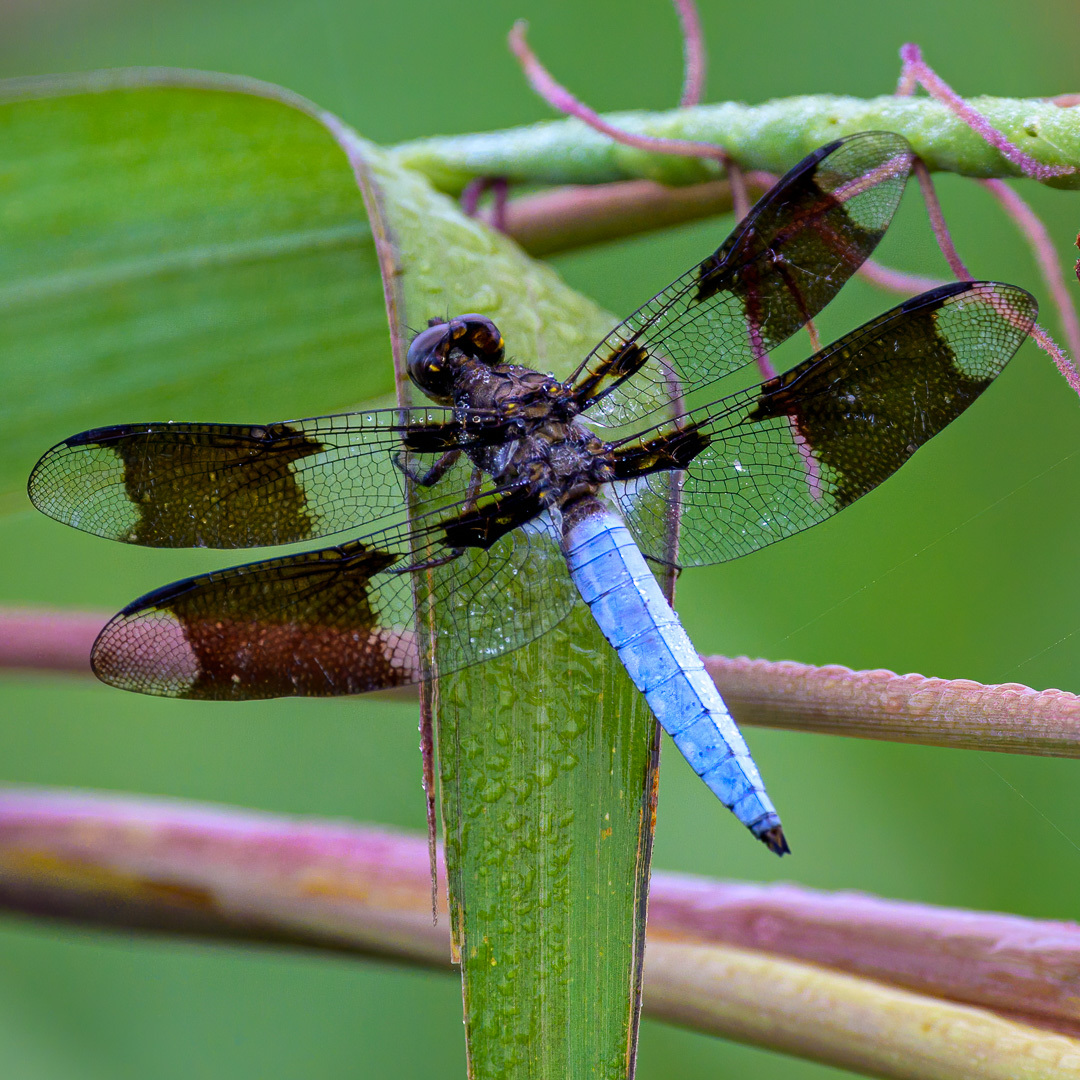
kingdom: Animalia
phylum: Arthropoda
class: Insecta
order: Odonata
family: Libellulidae
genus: Plathemis
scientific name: Plathemis lydia
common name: Common whitetail
